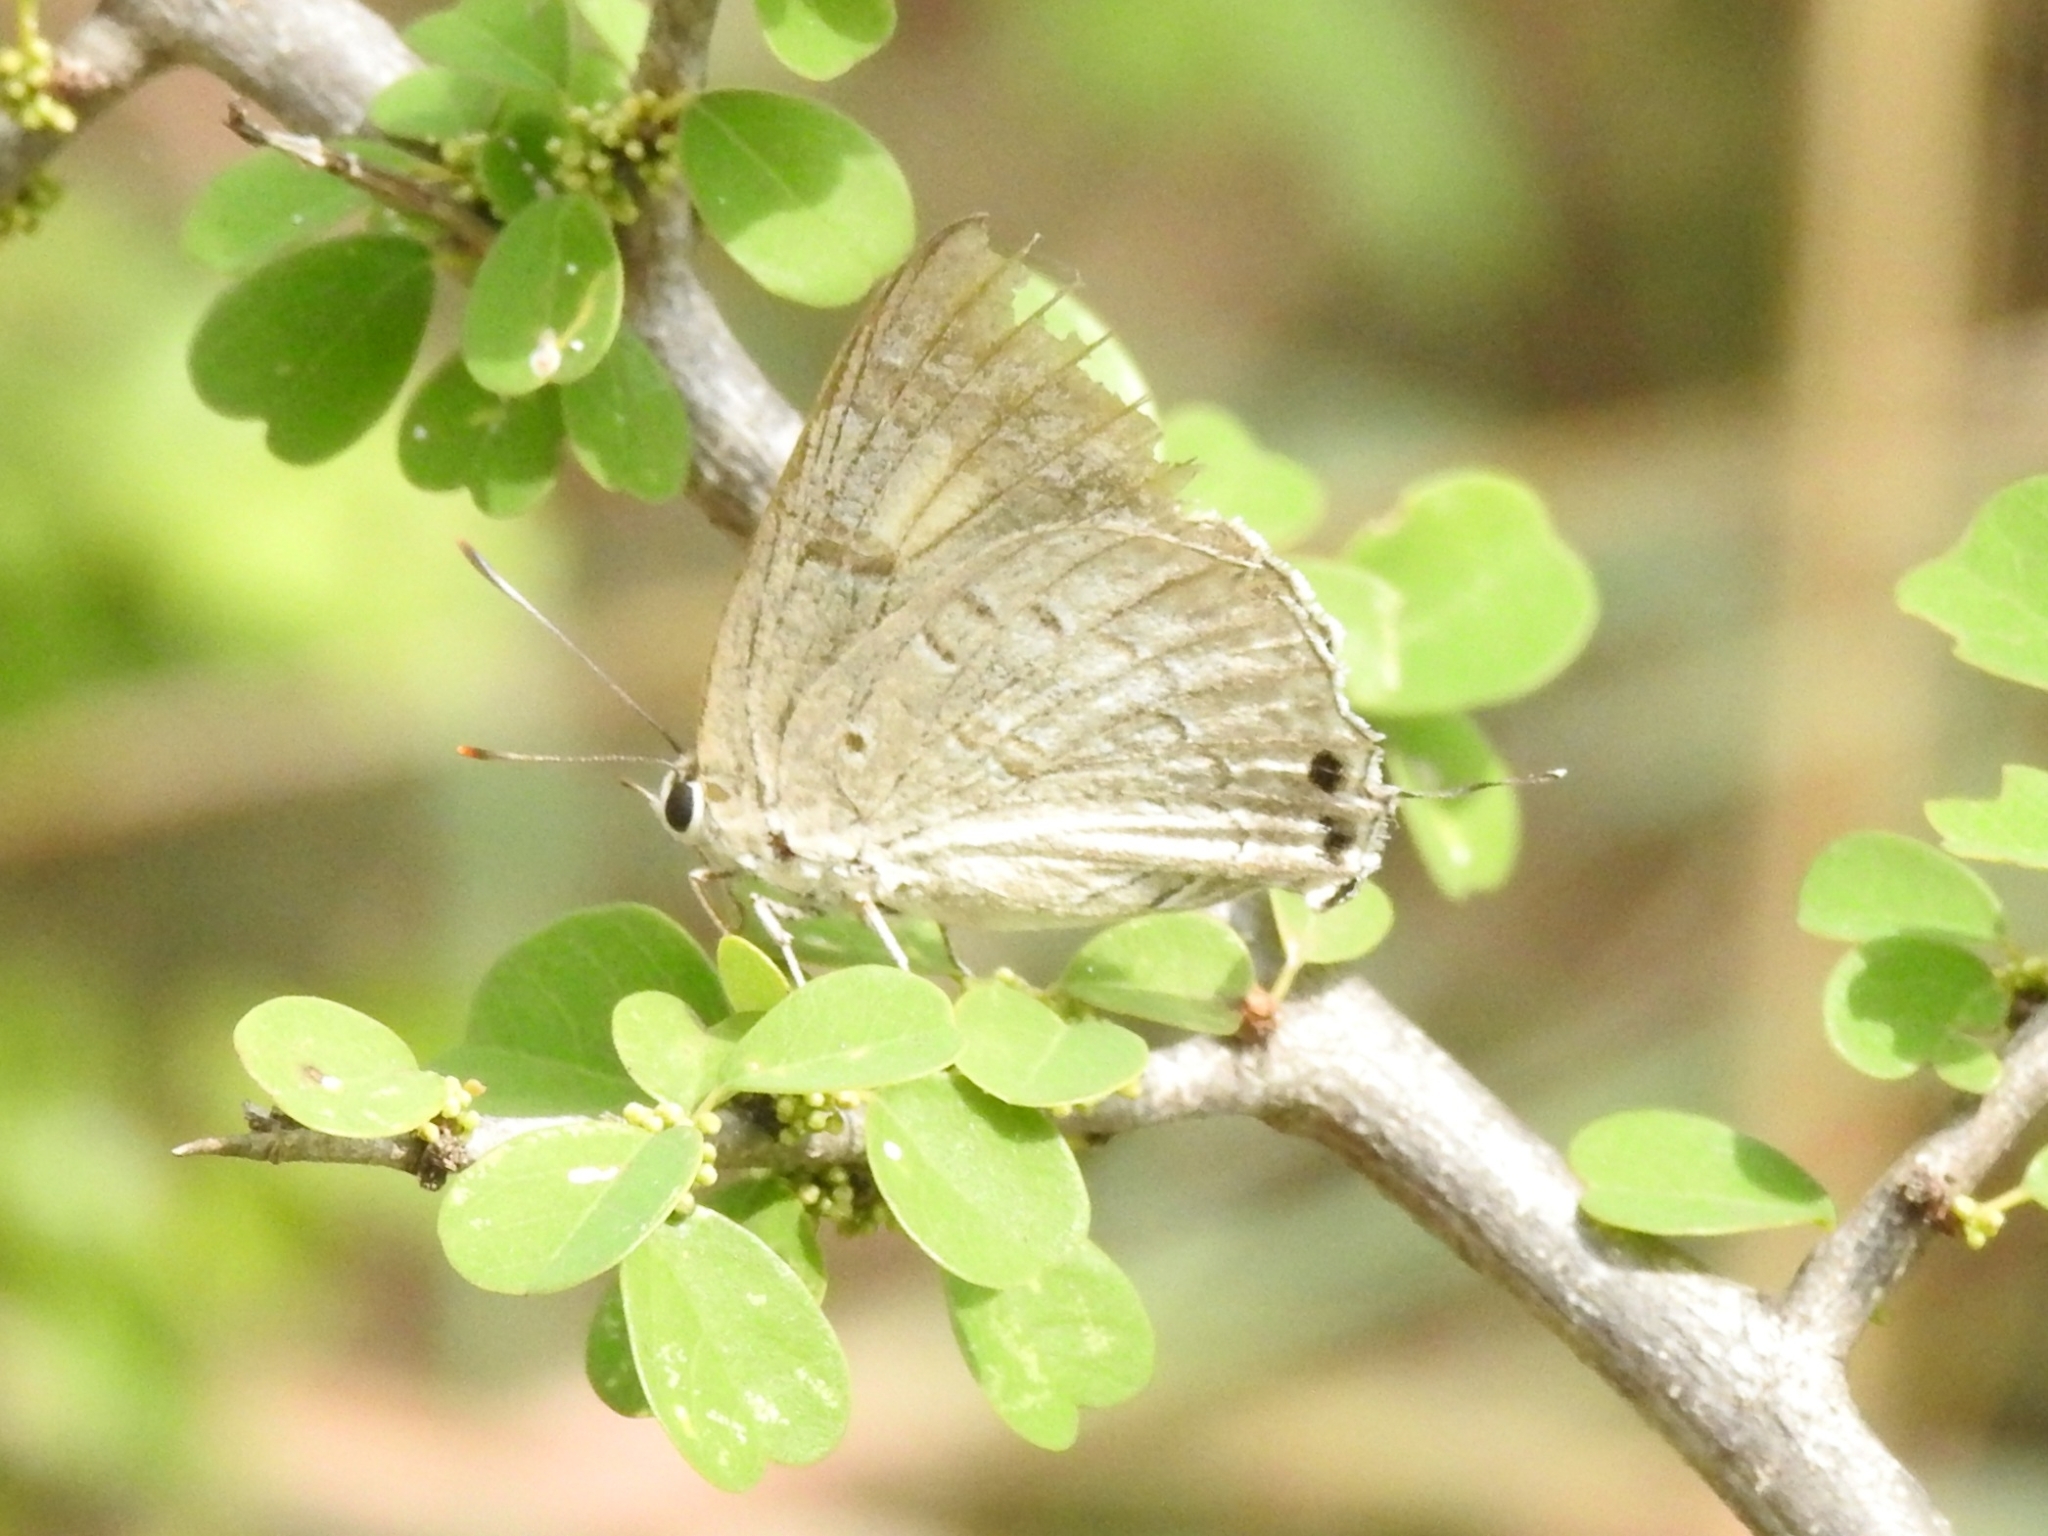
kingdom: Animalia
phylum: Arthropoda
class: Insecta
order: Lepidoptera
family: Lycaenidae
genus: Deudorix
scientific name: Deudorix
